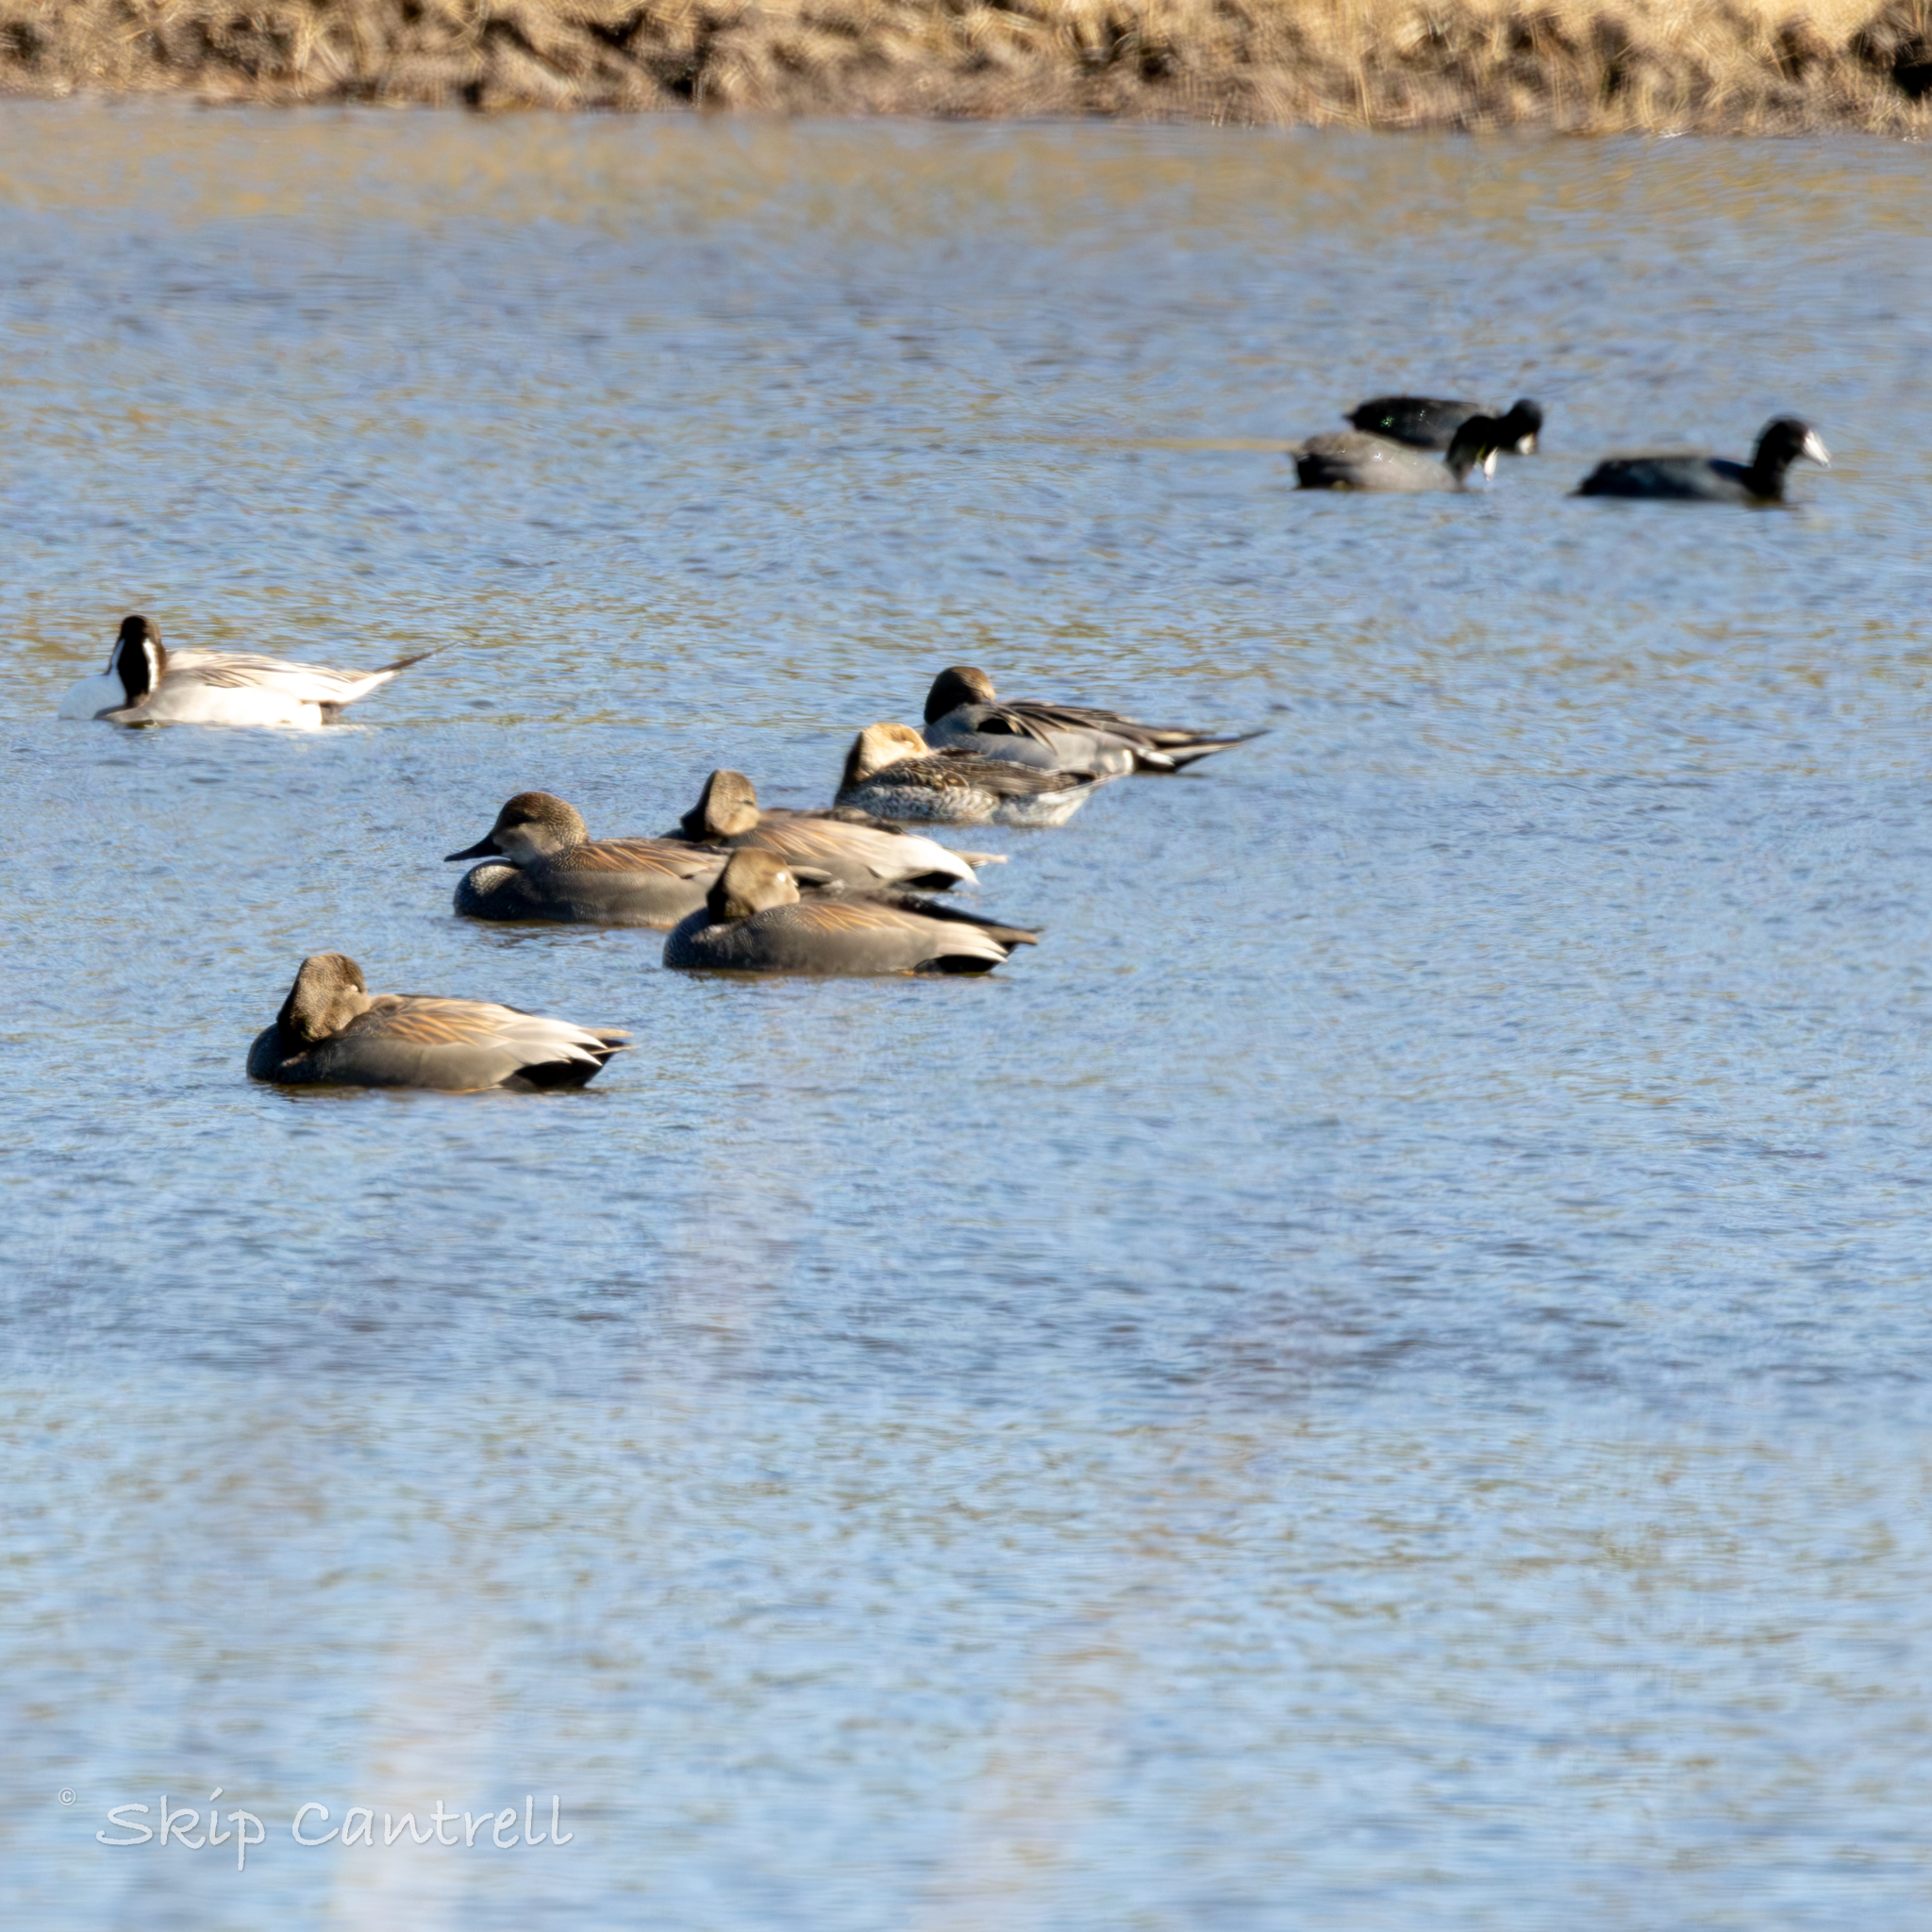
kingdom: Animalia
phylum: Chordata
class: Aves
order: Anseriformes
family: Anatidae
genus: Mareca
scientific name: Mareca strepera
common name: Gadwall
